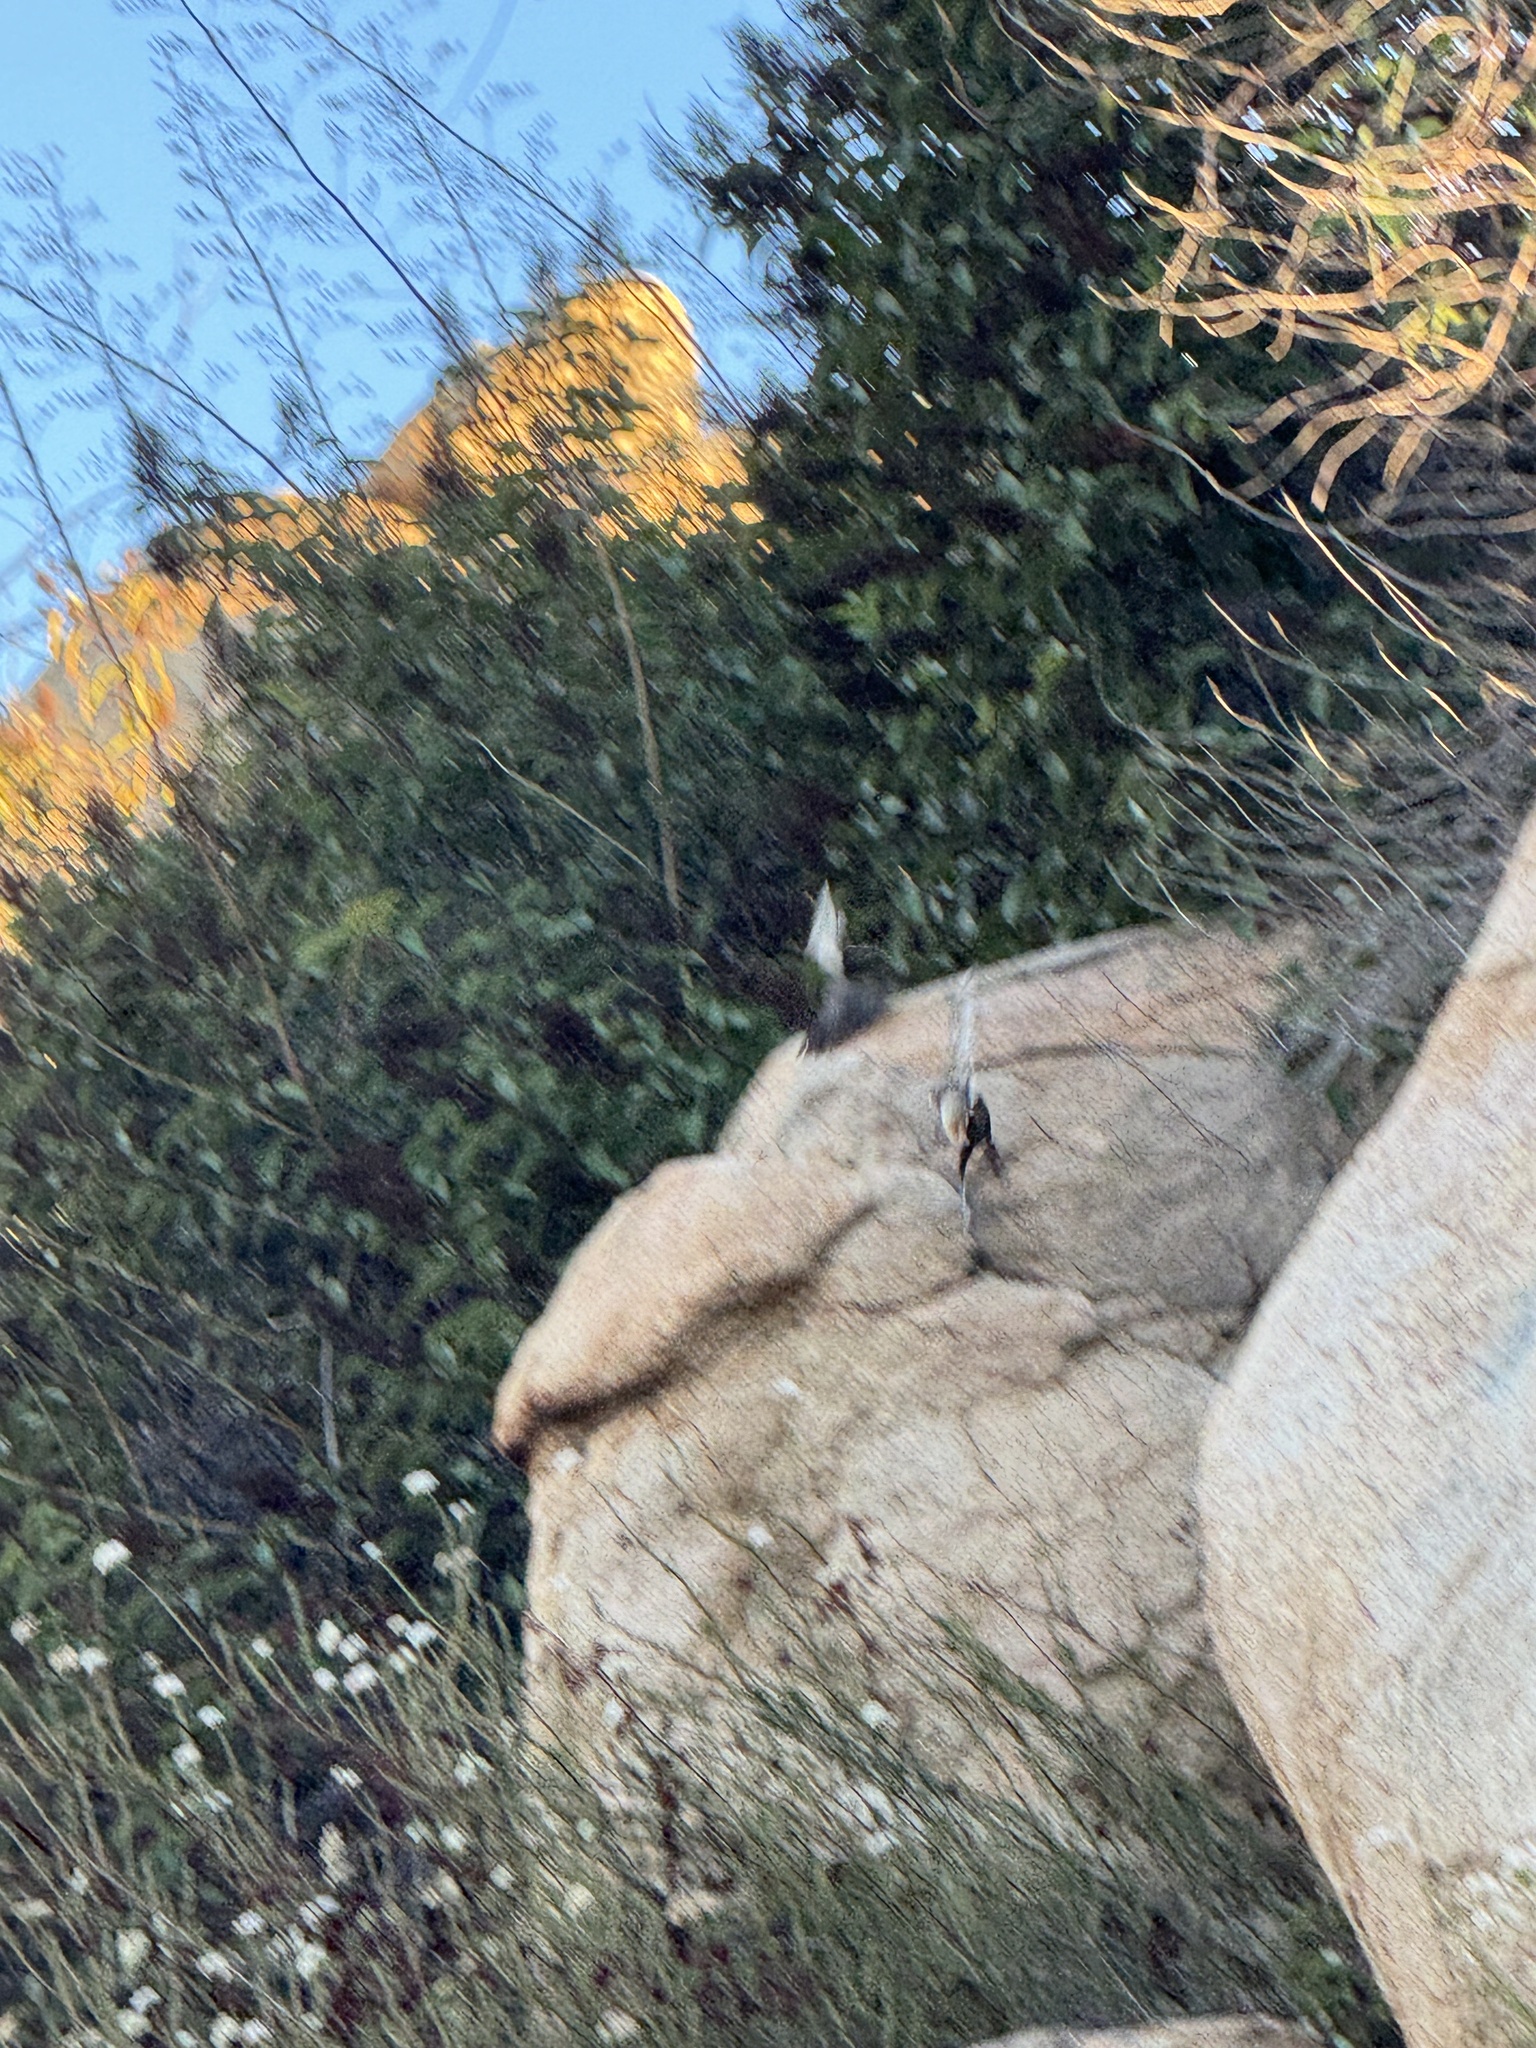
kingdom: Animalia
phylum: Chordata
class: Aves
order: Passeriformes
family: Passerellidae
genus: Melozone
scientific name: Melozone crissalis
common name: California towhee
